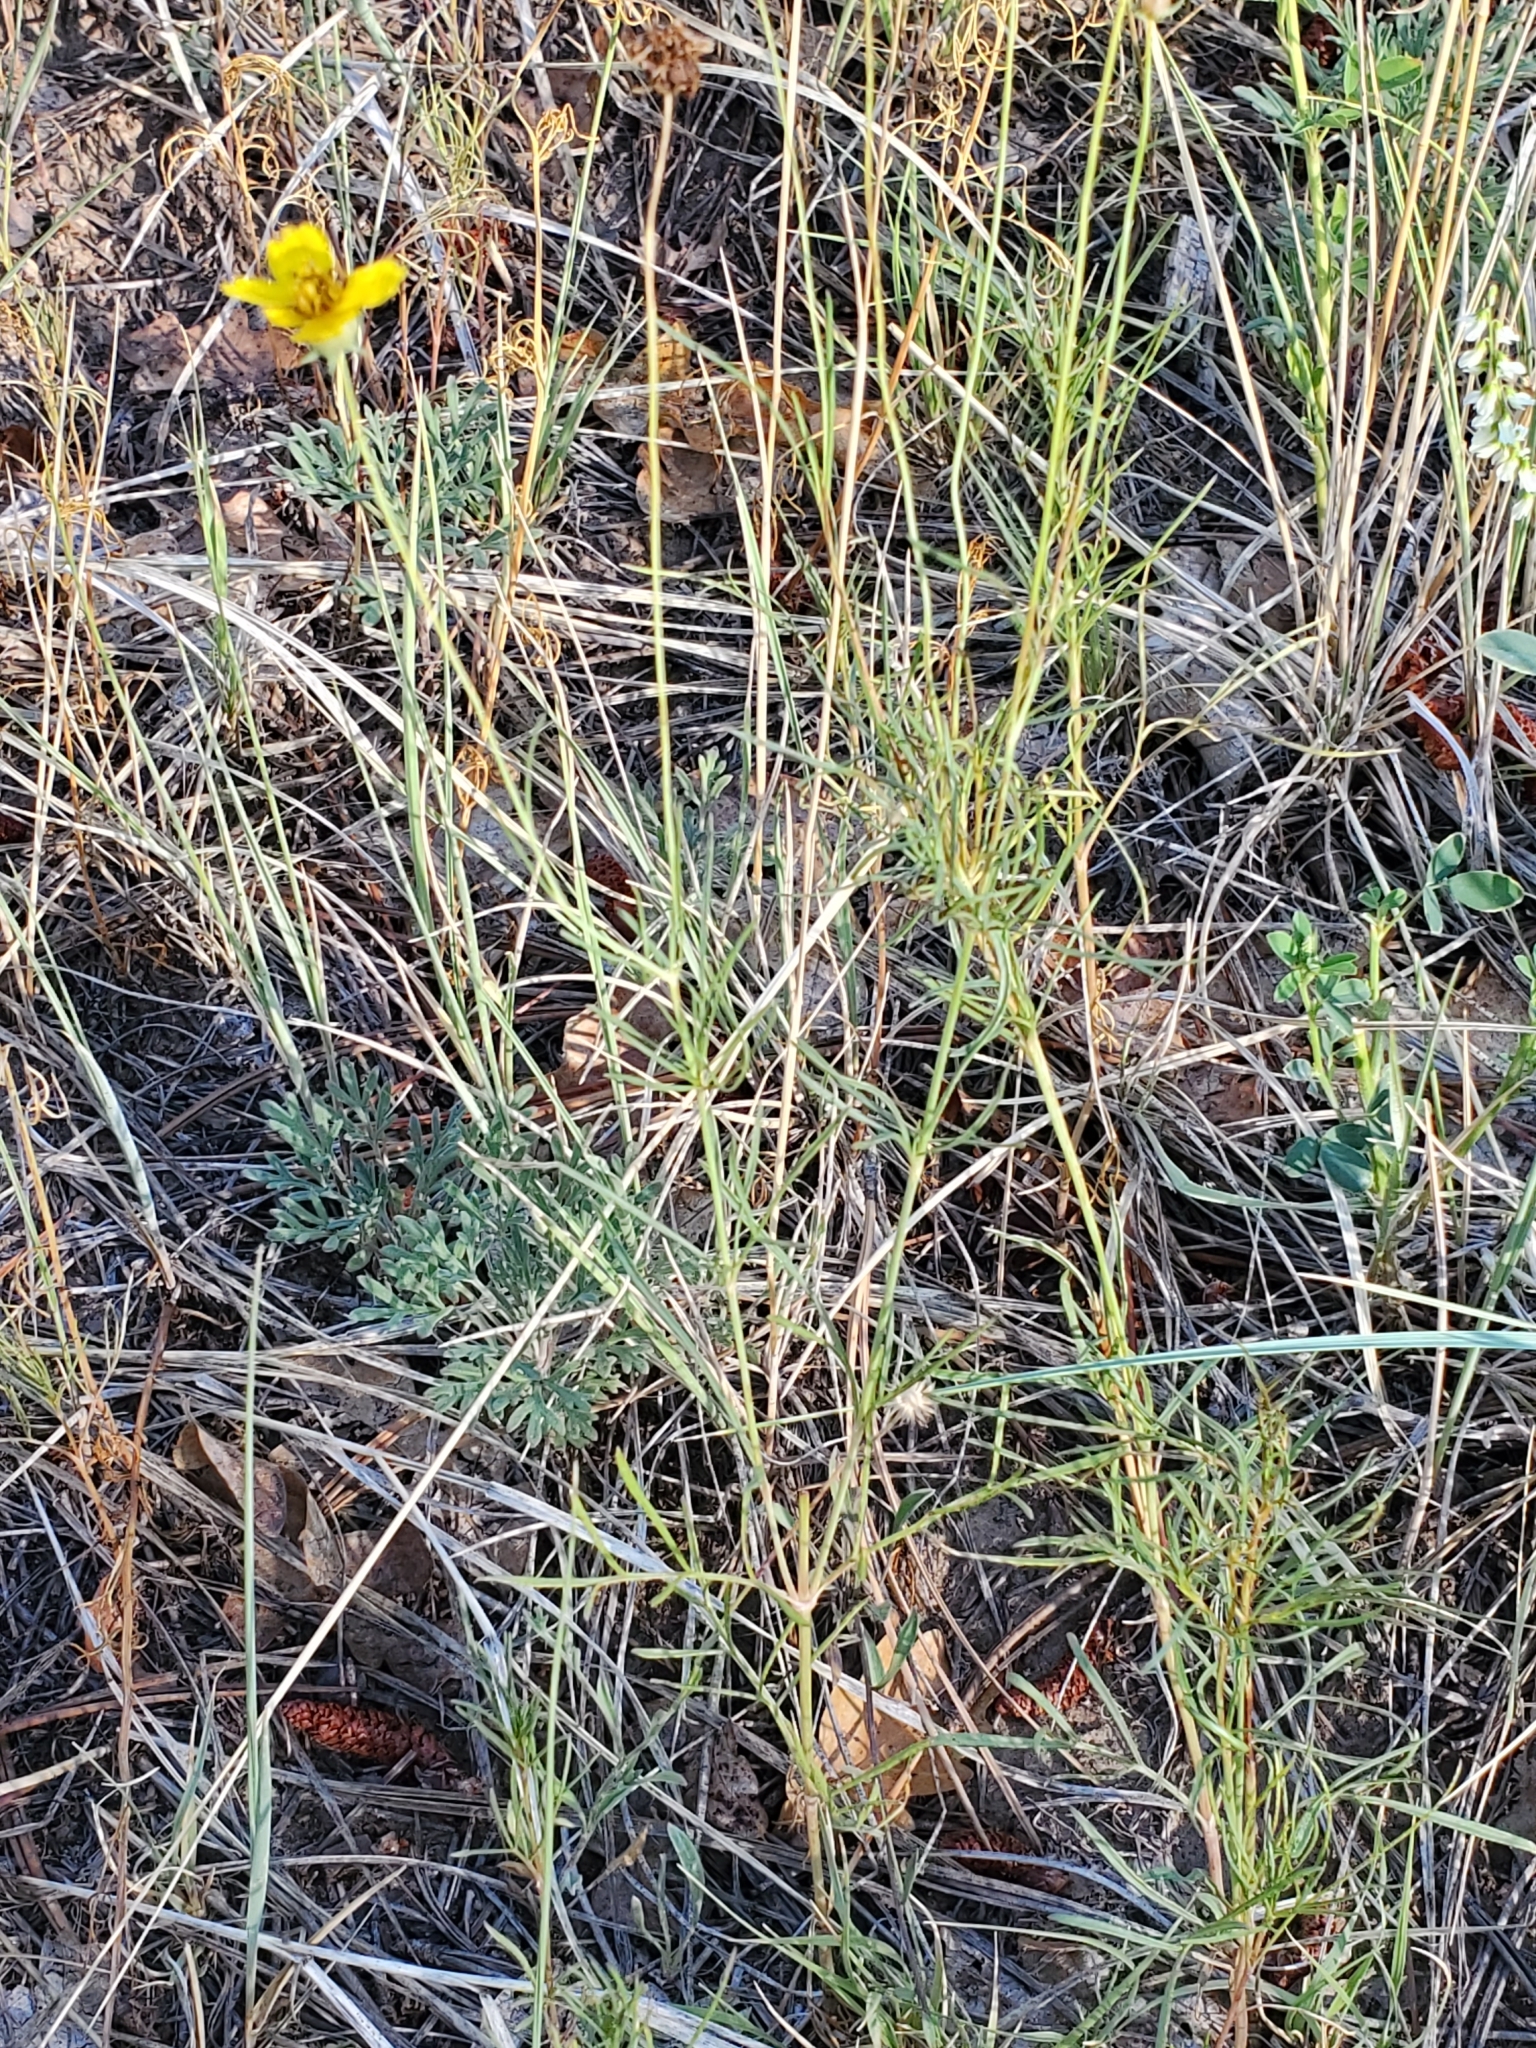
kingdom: Plantae
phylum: Tracheophyta
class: Magnoliopsida
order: Asterales
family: Asteraceae
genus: Thelesperma
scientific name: Thelesperma filifolium
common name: Stiff greenthread
